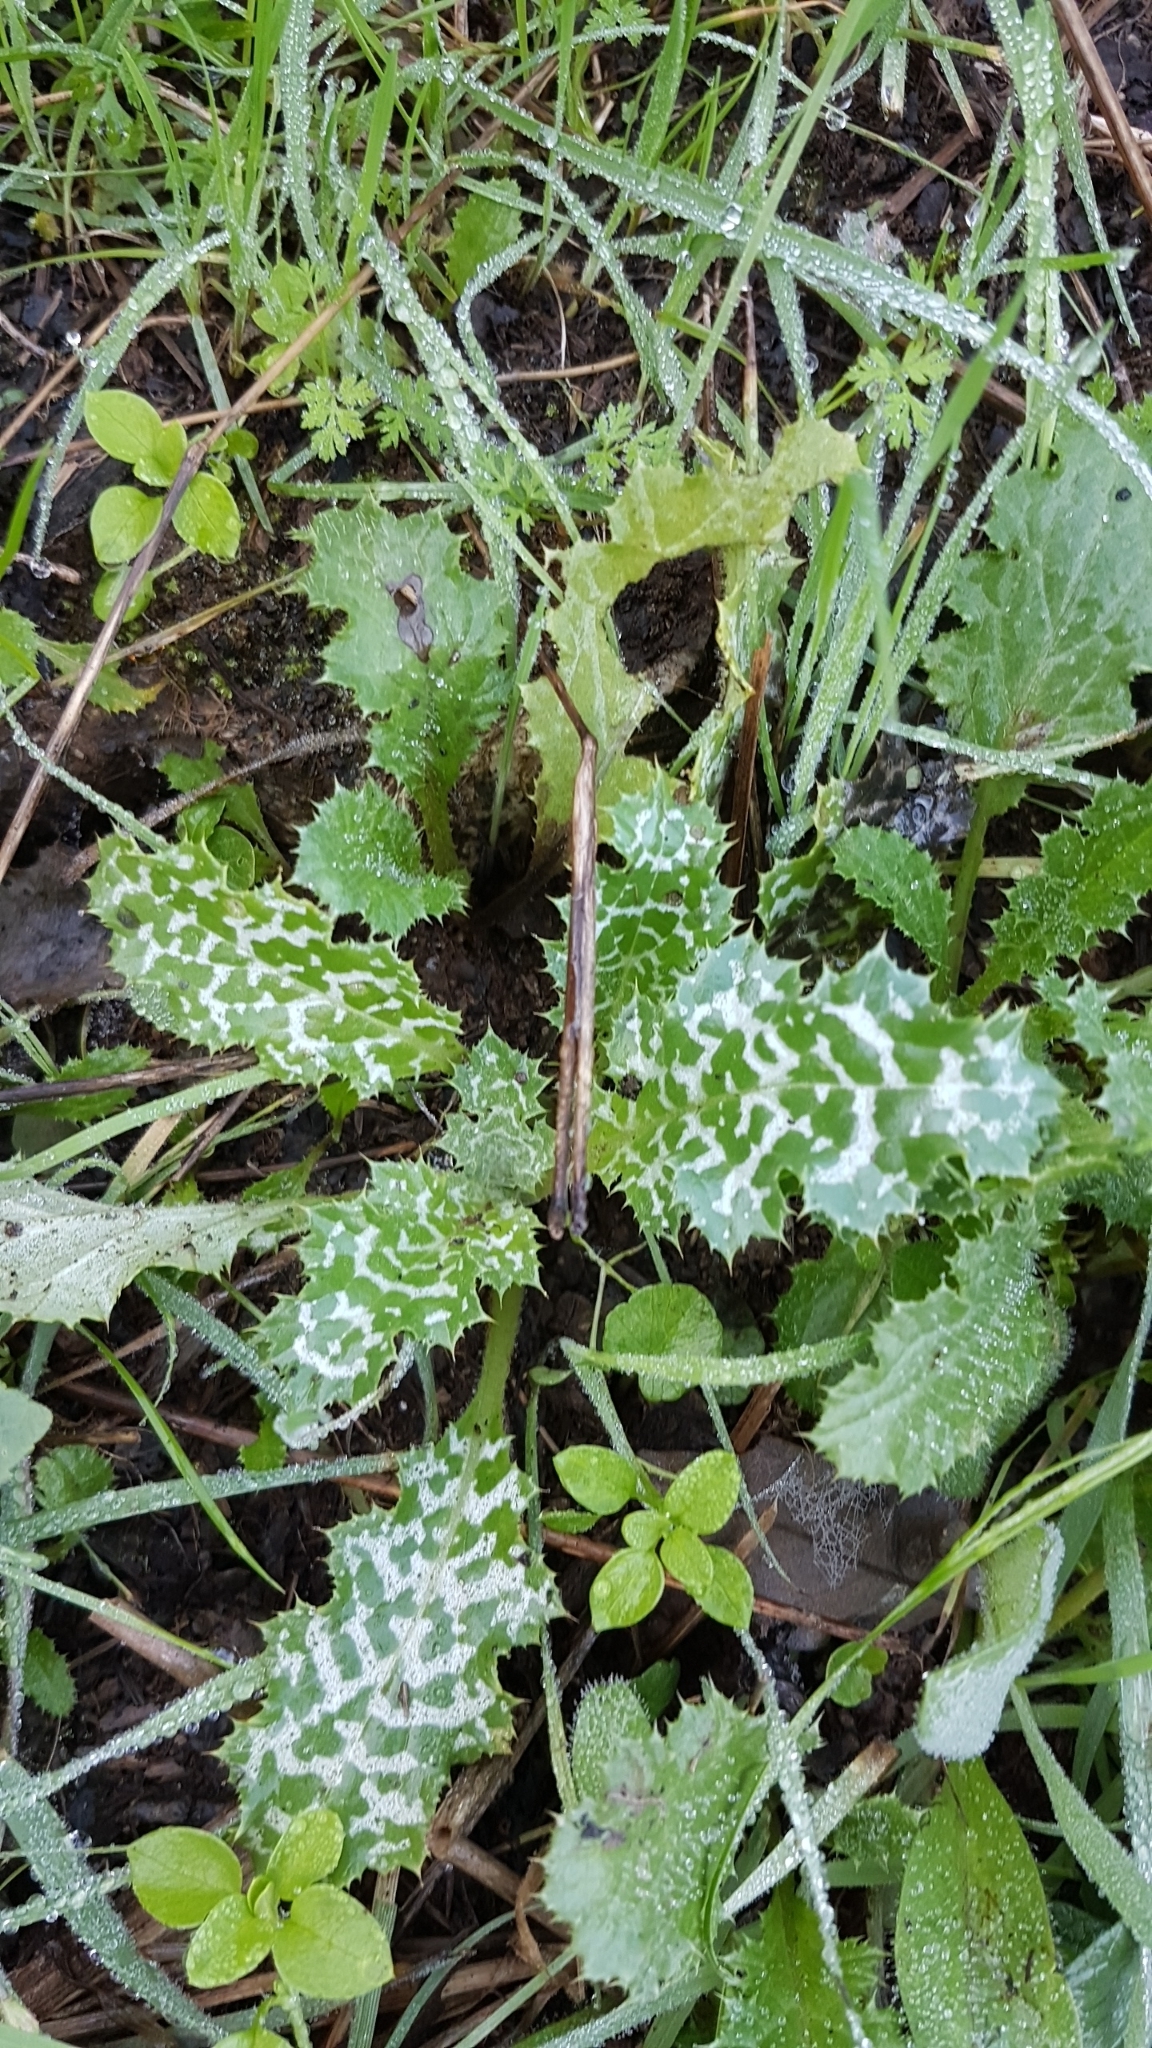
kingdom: Plantae
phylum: Tracheophyta
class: Magnoliopsida
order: Asterales
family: Asteraceae
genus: Silybum
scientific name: Silybum marianum
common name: Milk thistle
